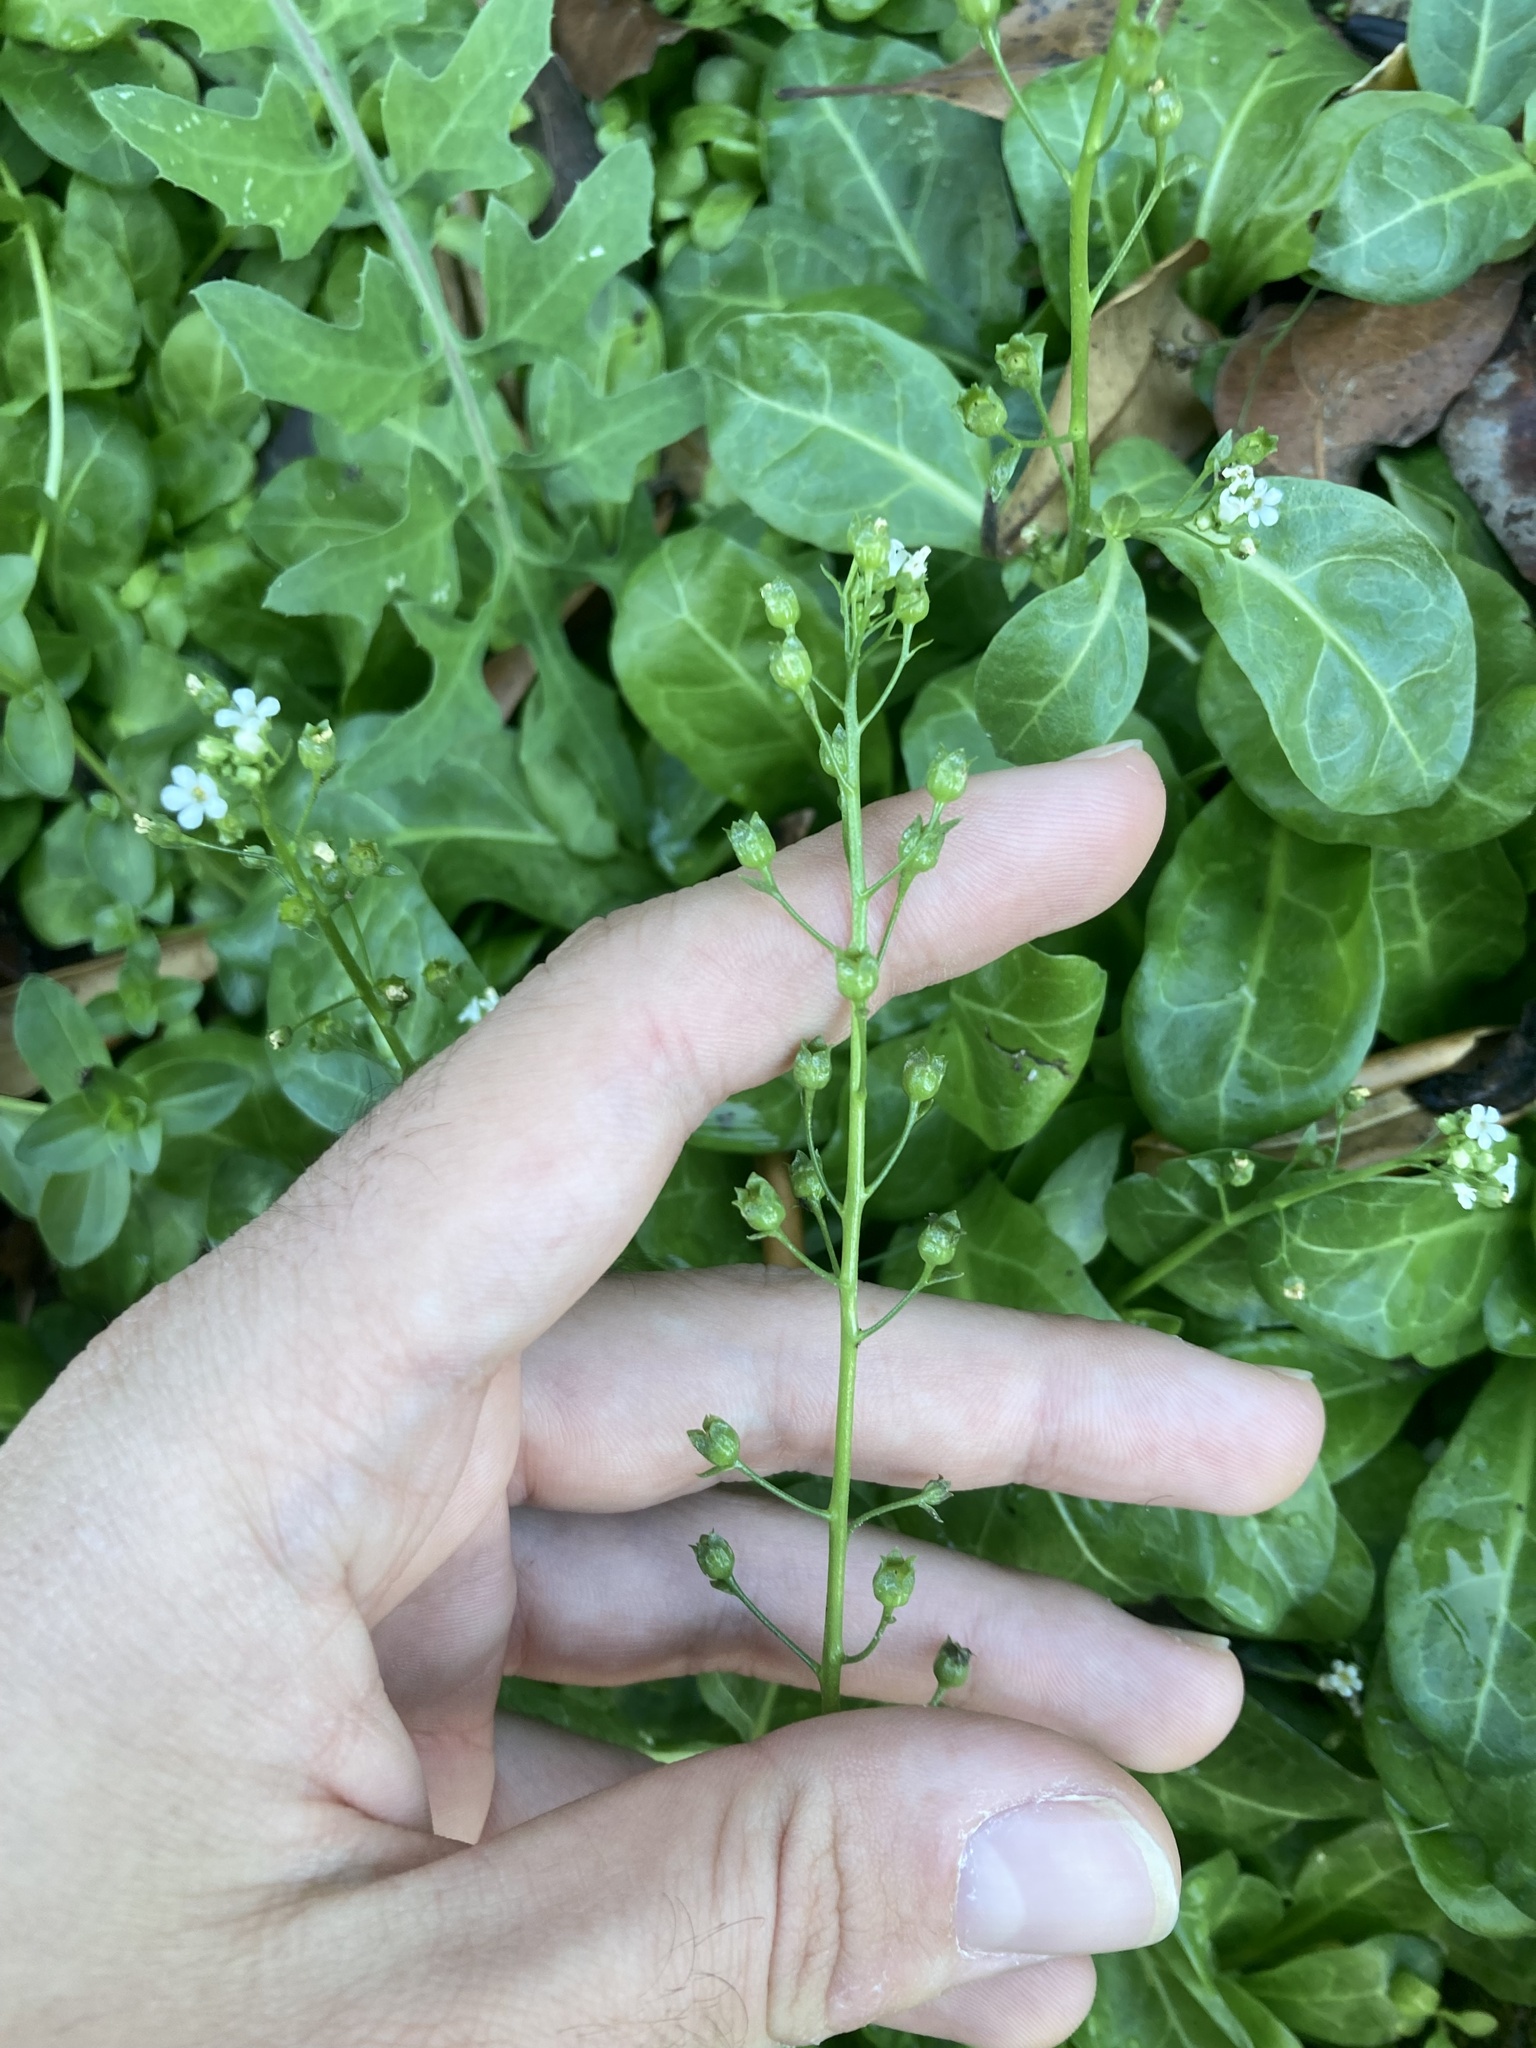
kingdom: Plantae
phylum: Tracheophyta
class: Magnoliopsida
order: Ericales
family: Primulaceae
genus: Samolus
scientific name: Samolus valerandi
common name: Brookweed
